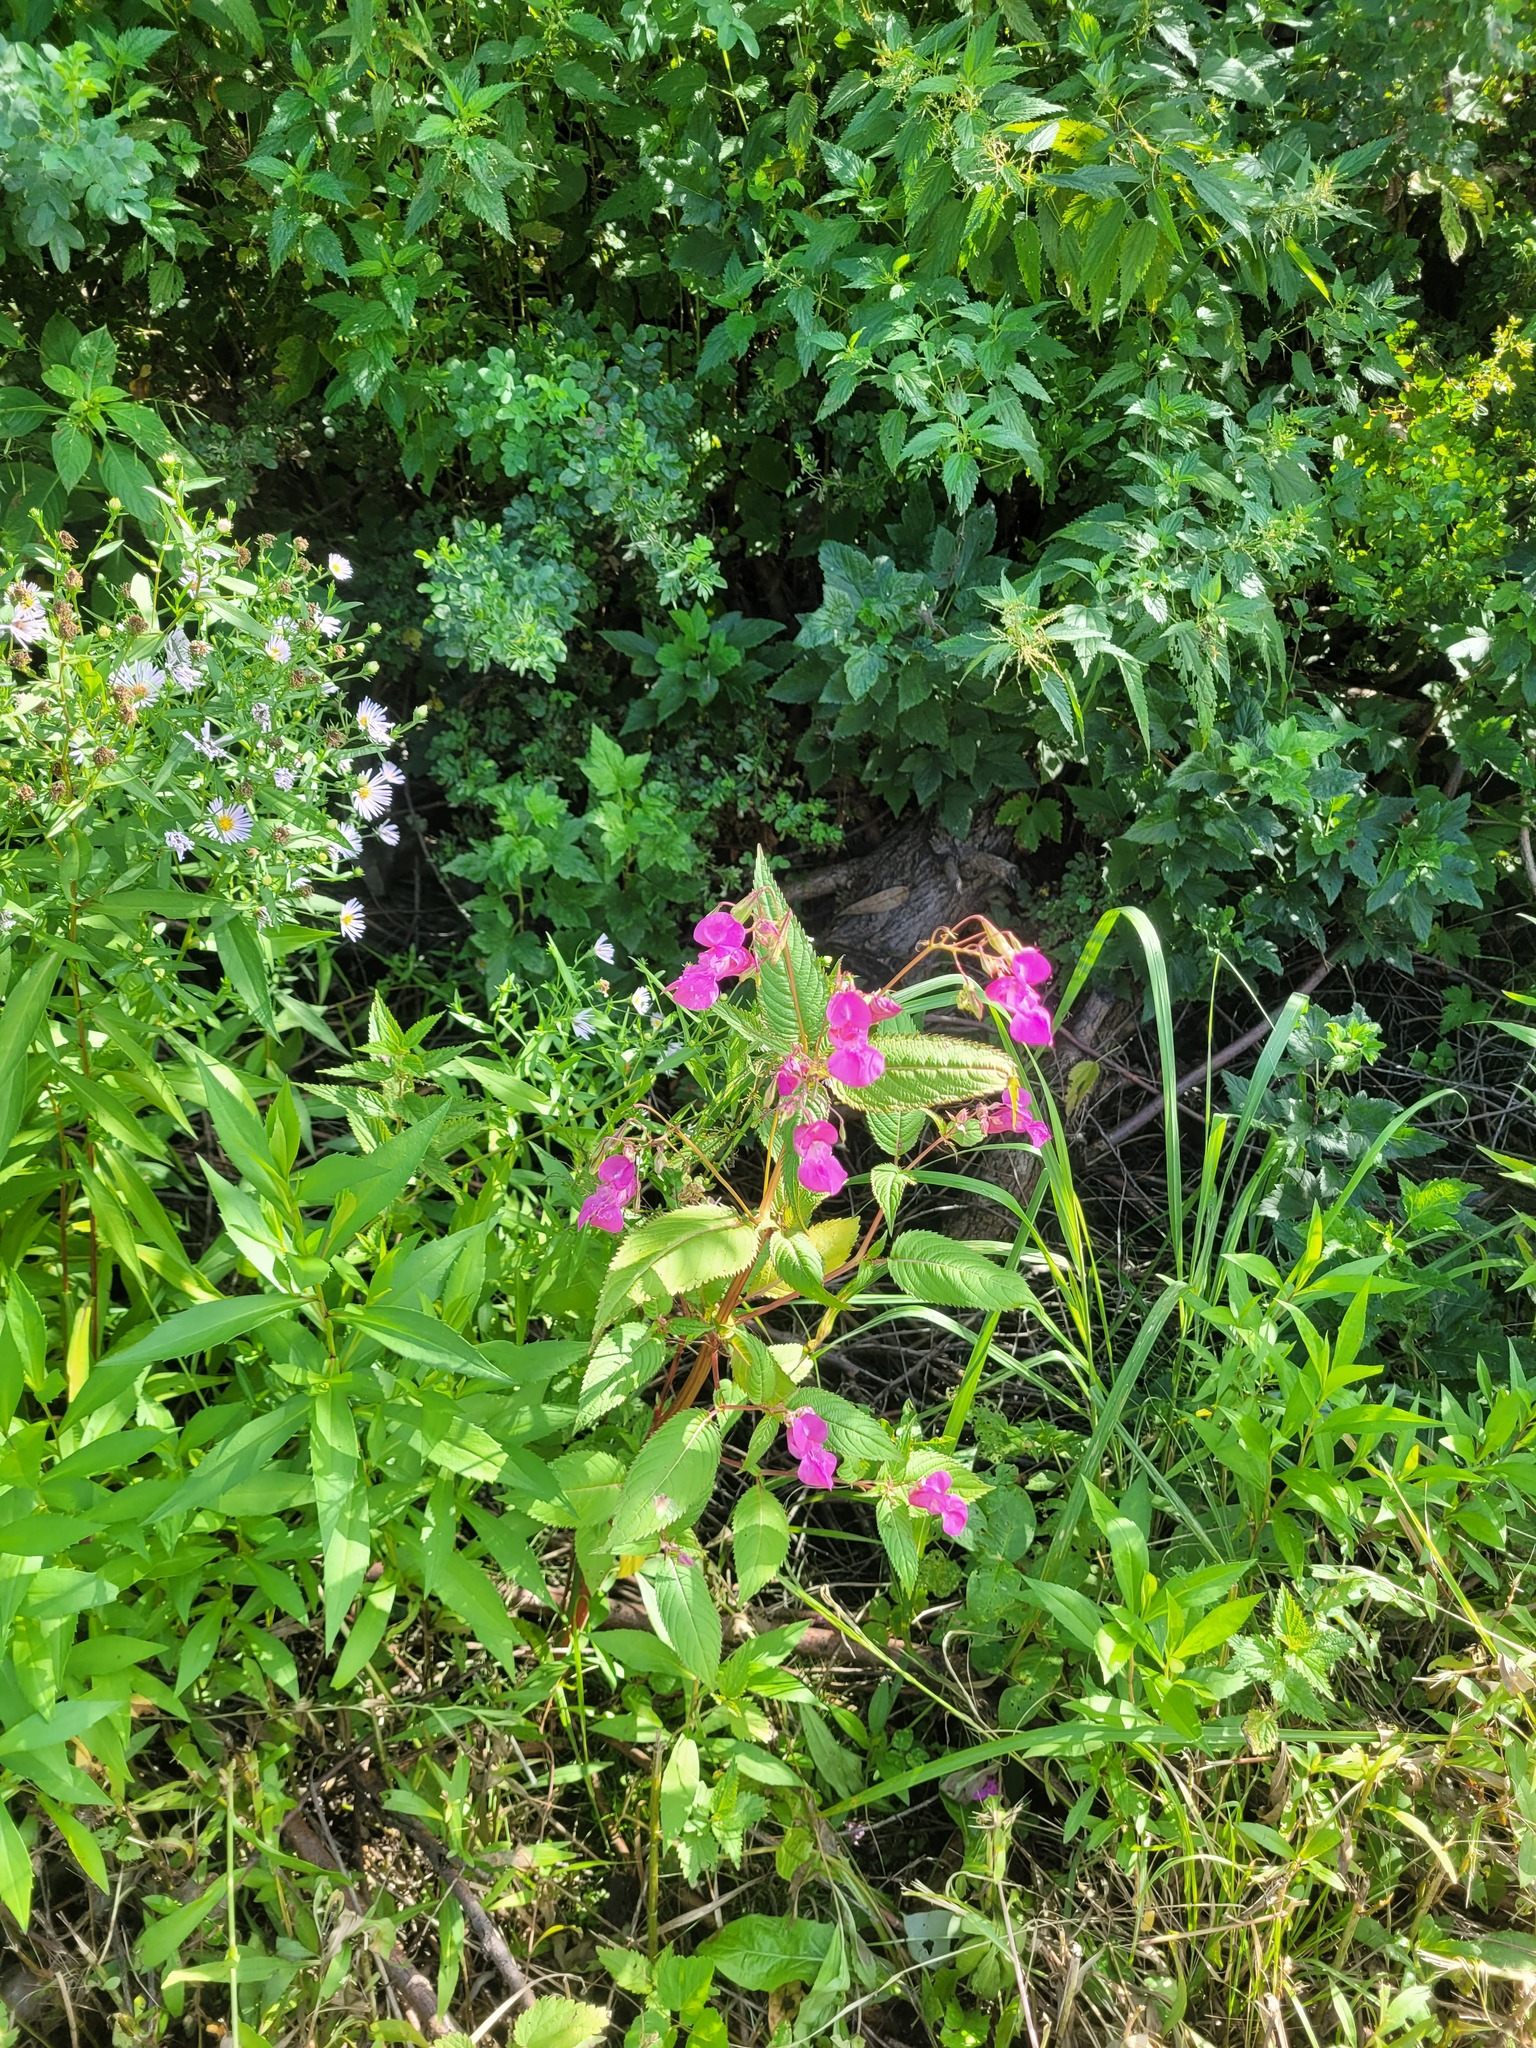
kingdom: Plantae
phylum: Tracheophyta
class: Magnoliopsida
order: Ericales
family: Balsaminaceae
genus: Impatiens
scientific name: Impatiens glandulifera
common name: Himalayan balsam
